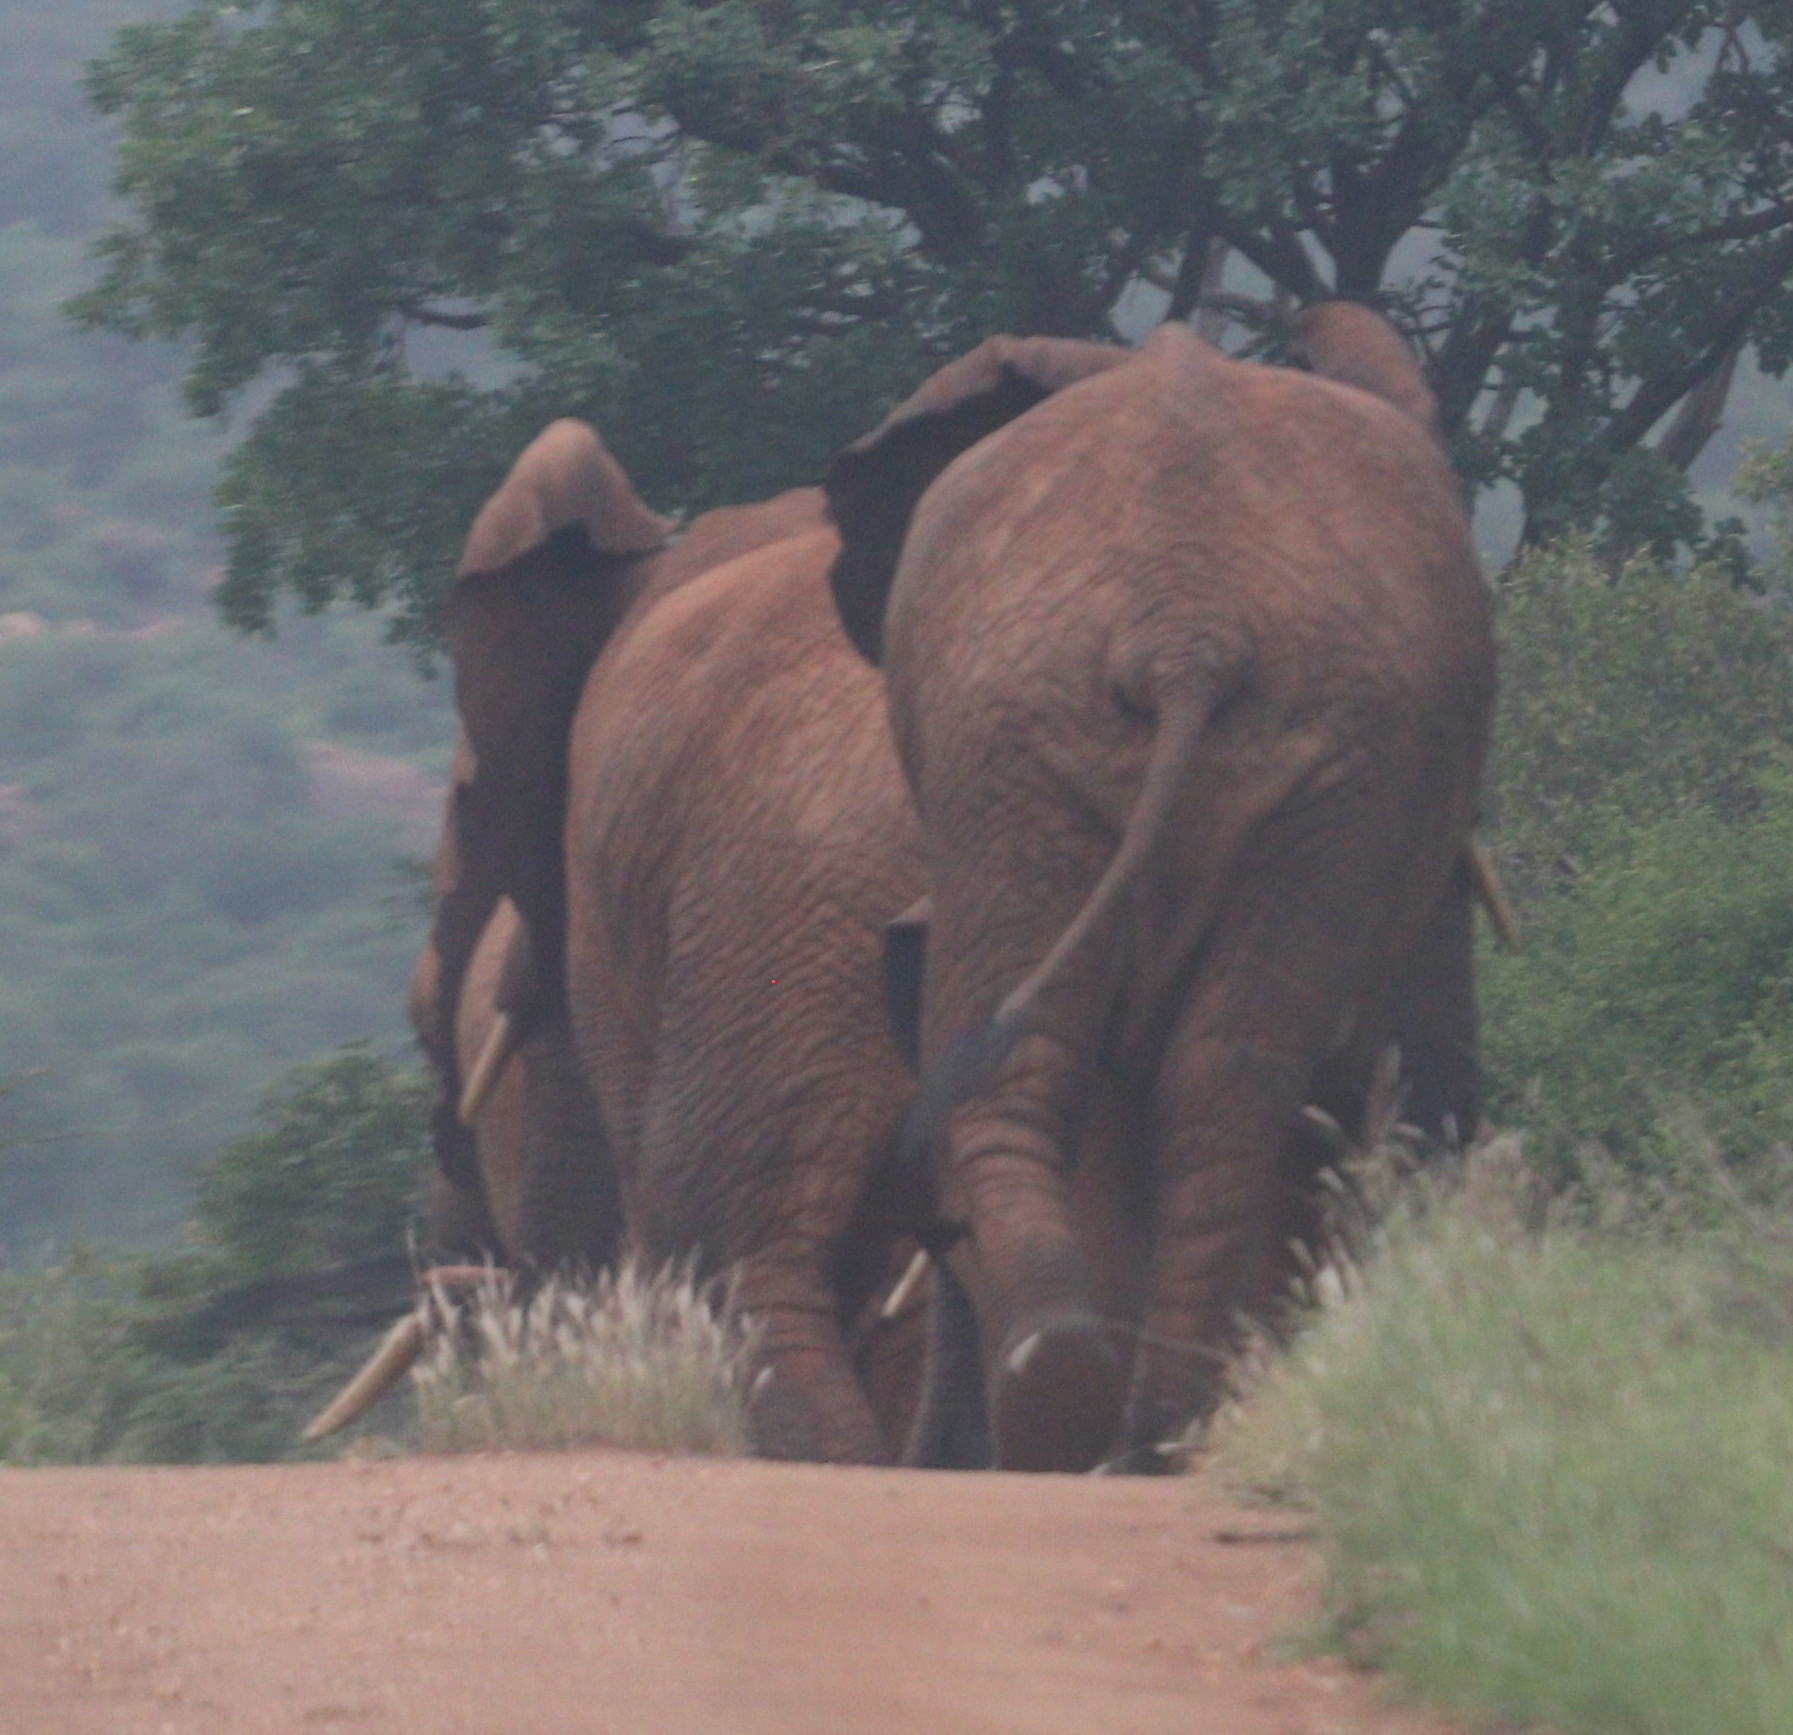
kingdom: Animalia
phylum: Chordata
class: Mammalia
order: Proboscidea
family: Elephantidae
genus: Loxodonta
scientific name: Loxodonta africana
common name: African elephant
